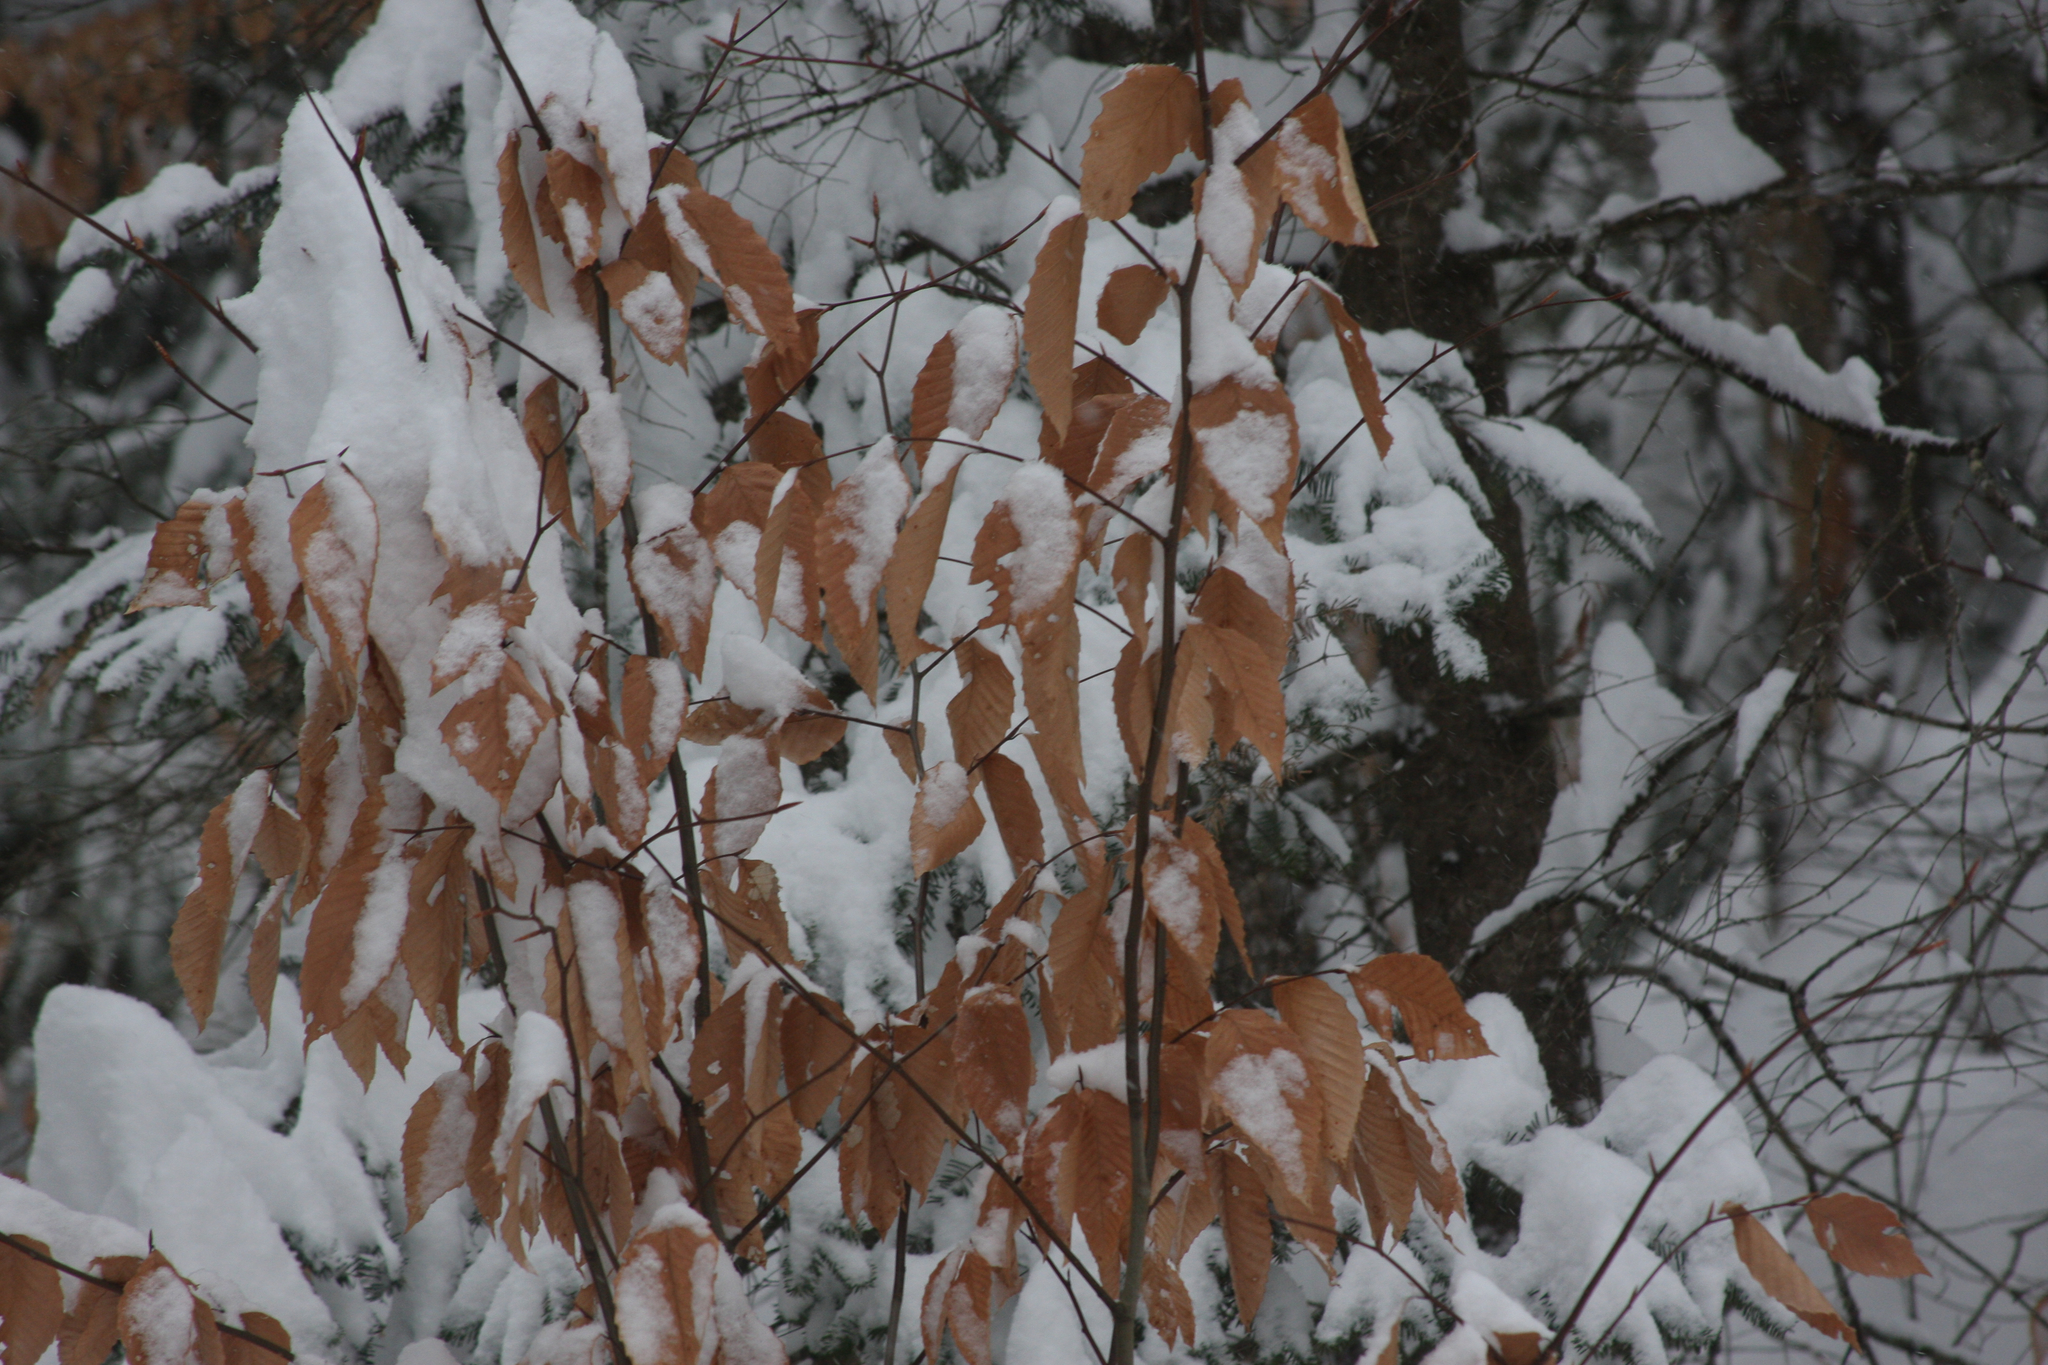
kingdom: Plantae
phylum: Tracheophyta
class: Magnoliopsida
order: Fagales
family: Fagaceae
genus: Fagus
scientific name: Fagus grandifolia
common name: American beech
